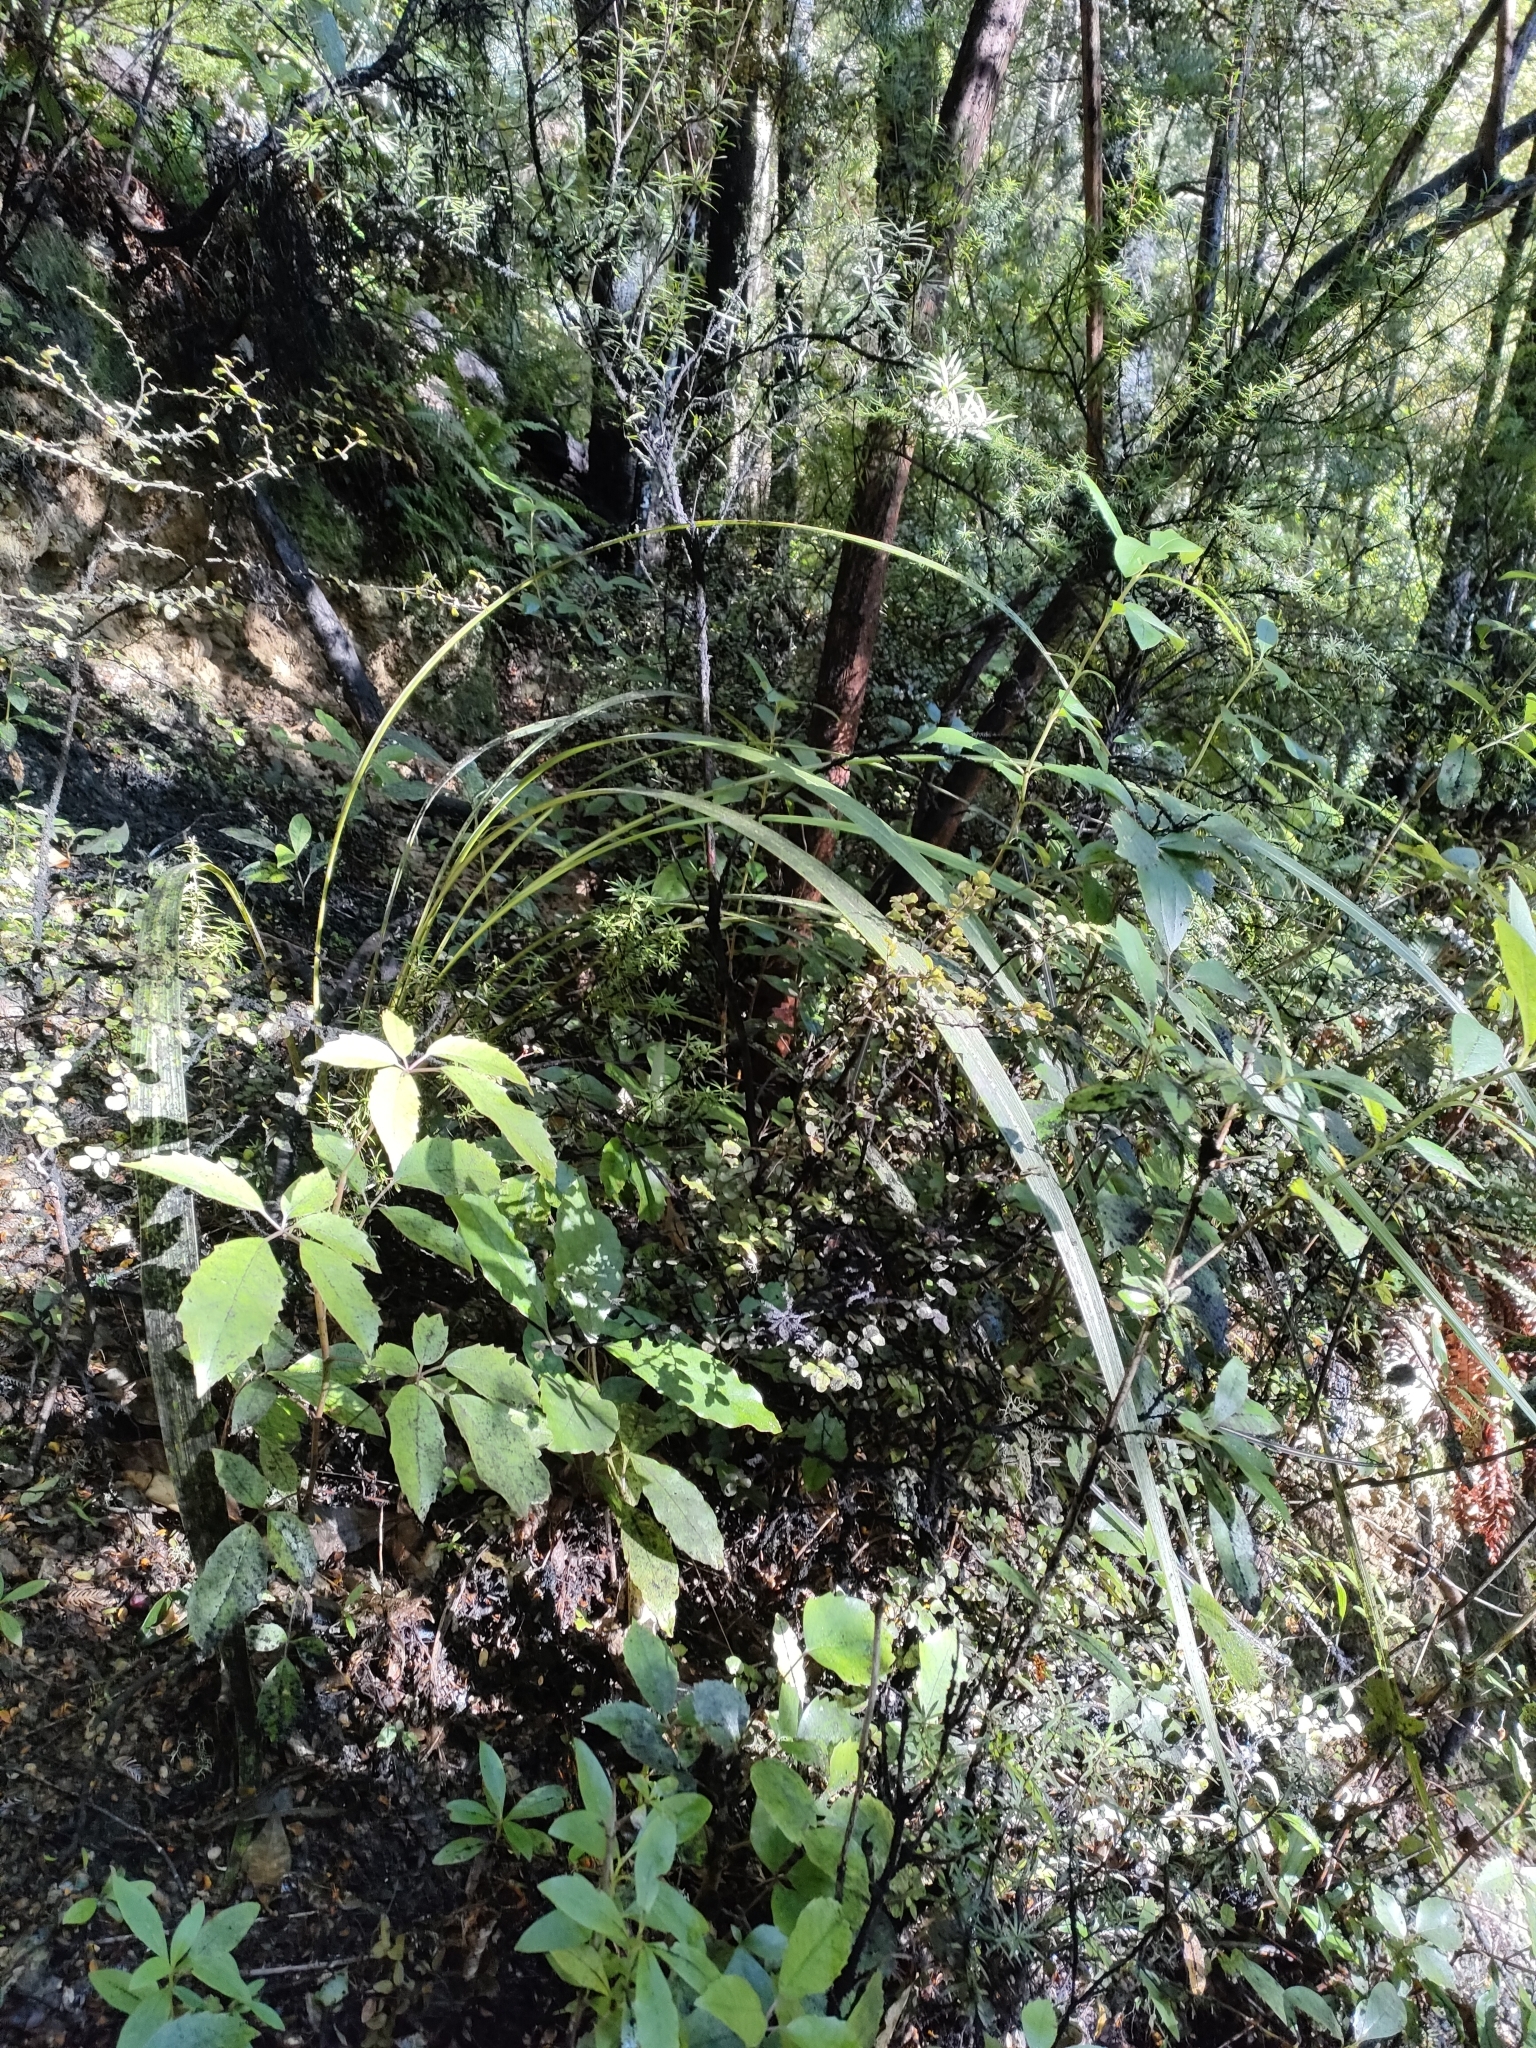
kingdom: Plantae
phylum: Tracheophyta
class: Liliopsida
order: Asparagales
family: Asparagaceae
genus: Cordyline
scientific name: Cordyline banksii
